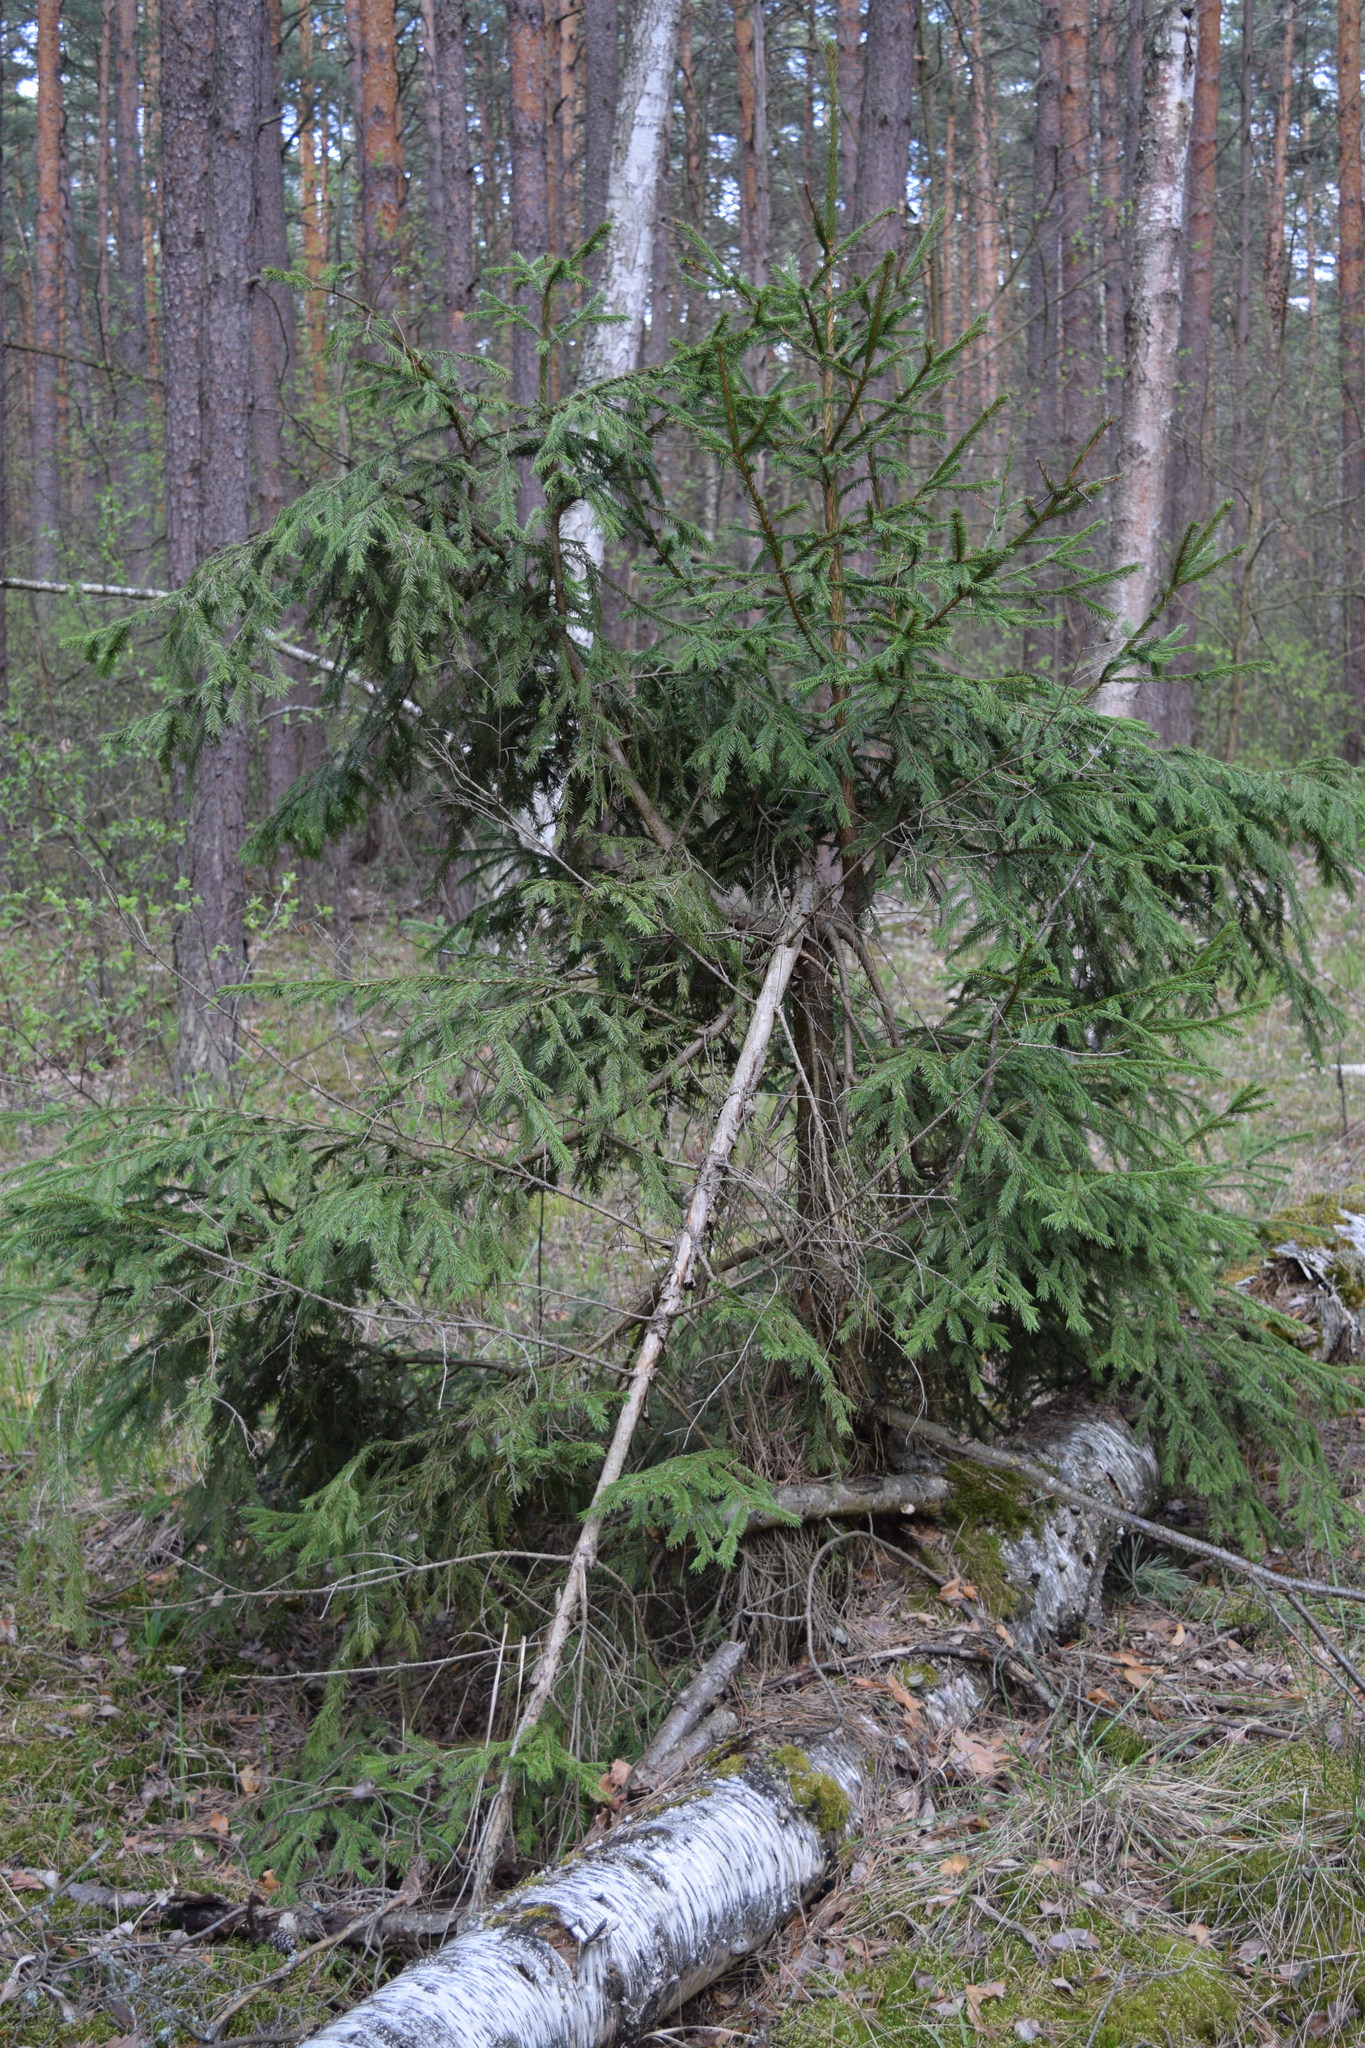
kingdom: Plantae
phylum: Tracheophyta
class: Pinopsida
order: Pinales
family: Pinaceae
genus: Picea
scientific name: Picea abies
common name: Norway spruce
